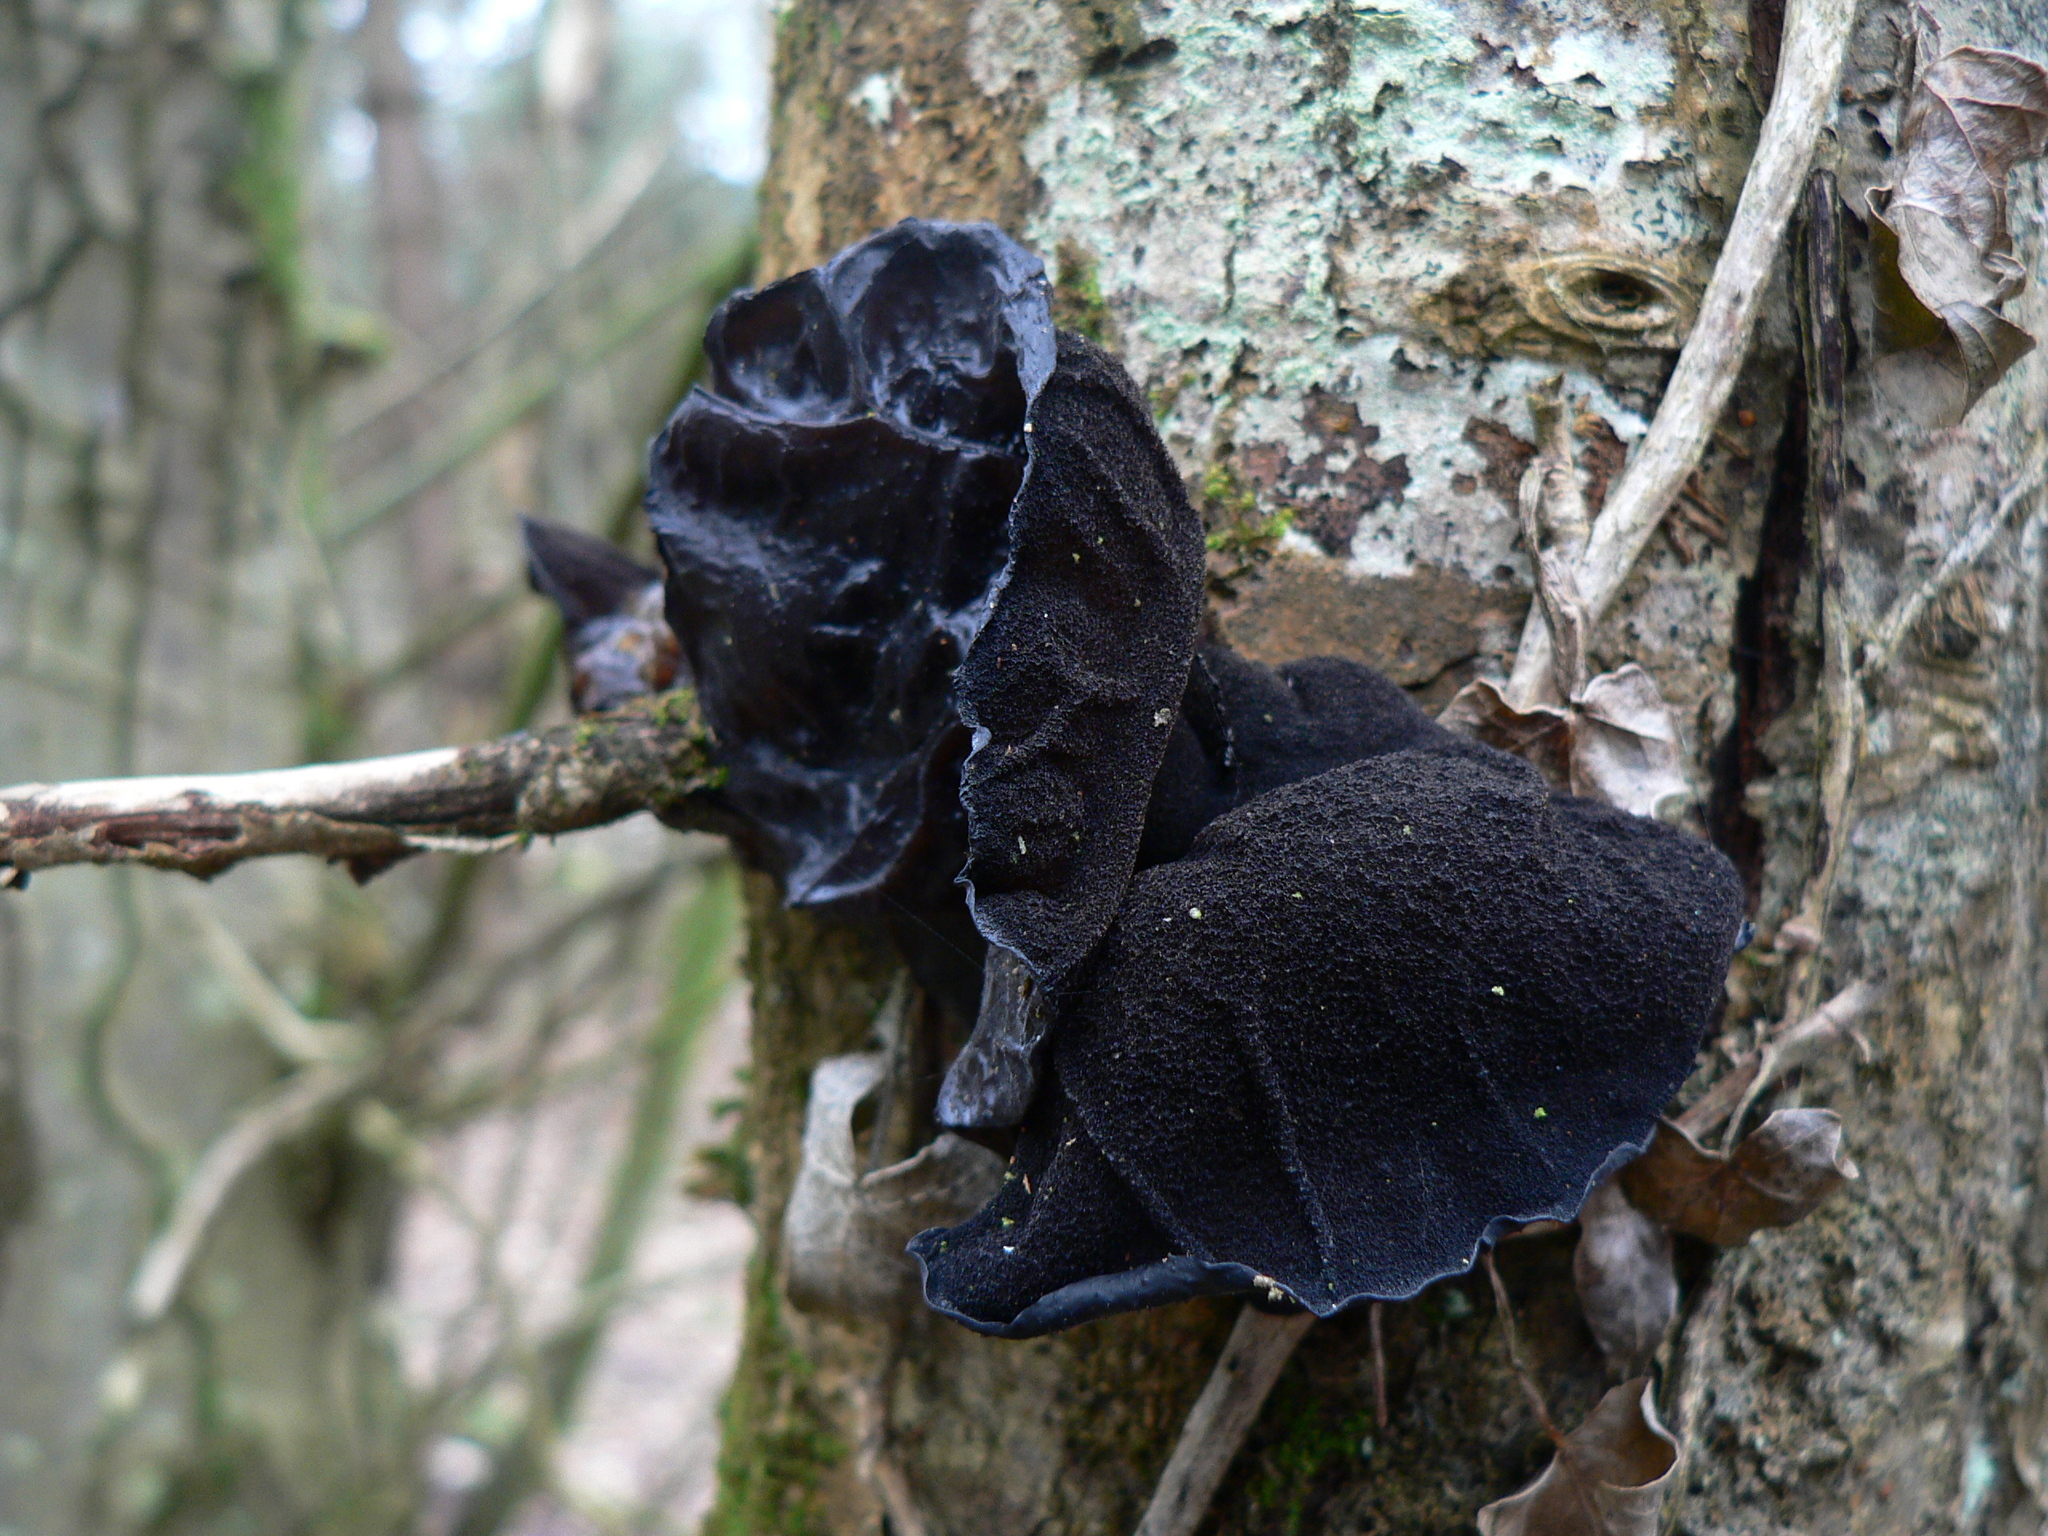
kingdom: Fungi
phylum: Basidiomycota
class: Agaricomycetes
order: Auriculariales
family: Auriculariaceae
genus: Auricularia
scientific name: Auricularia auricula-judae
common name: Jelly ear
